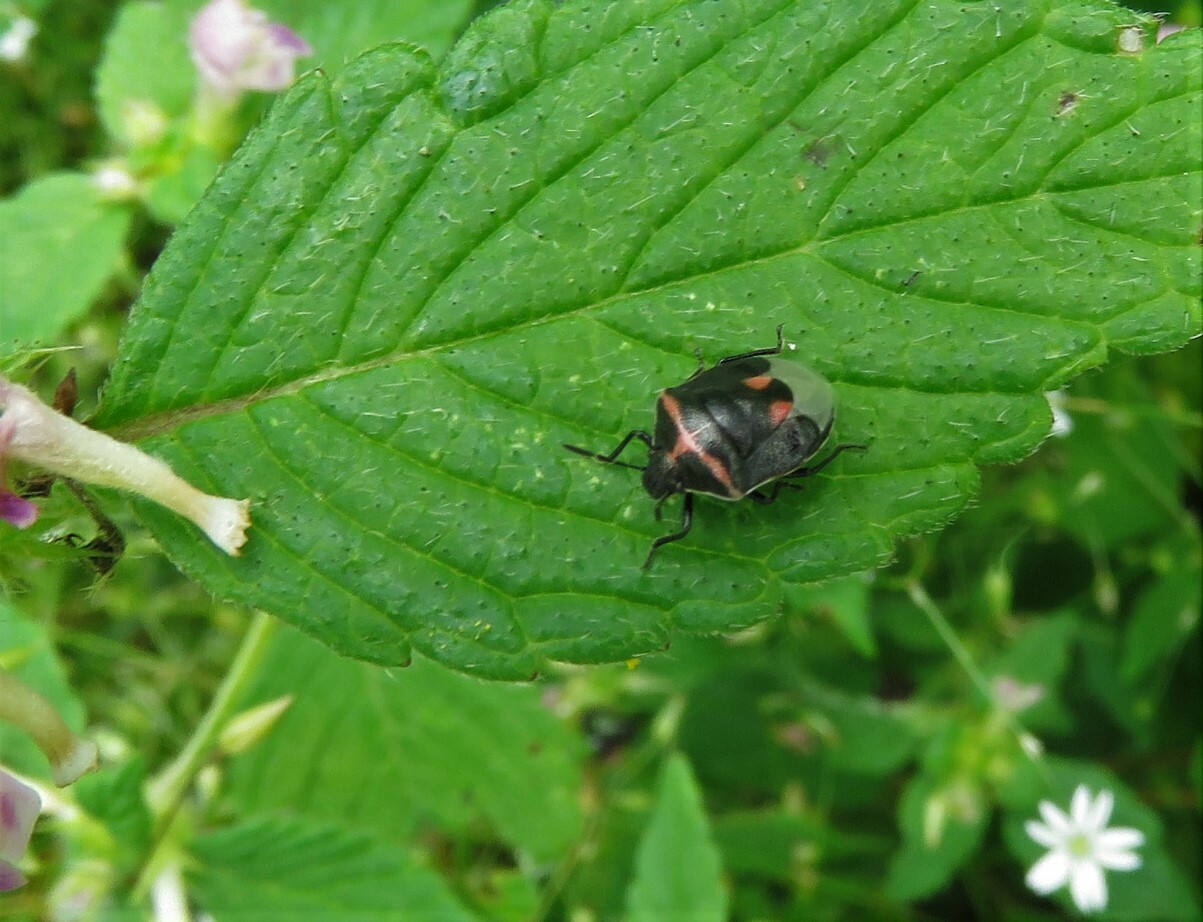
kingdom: Animalia
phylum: Arthropoda
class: Insecta
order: Hemiptera
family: Pentatomidae
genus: Cosmopepla
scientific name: Cosmopepla lintneriana
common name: Twice-stabbed stink bug
